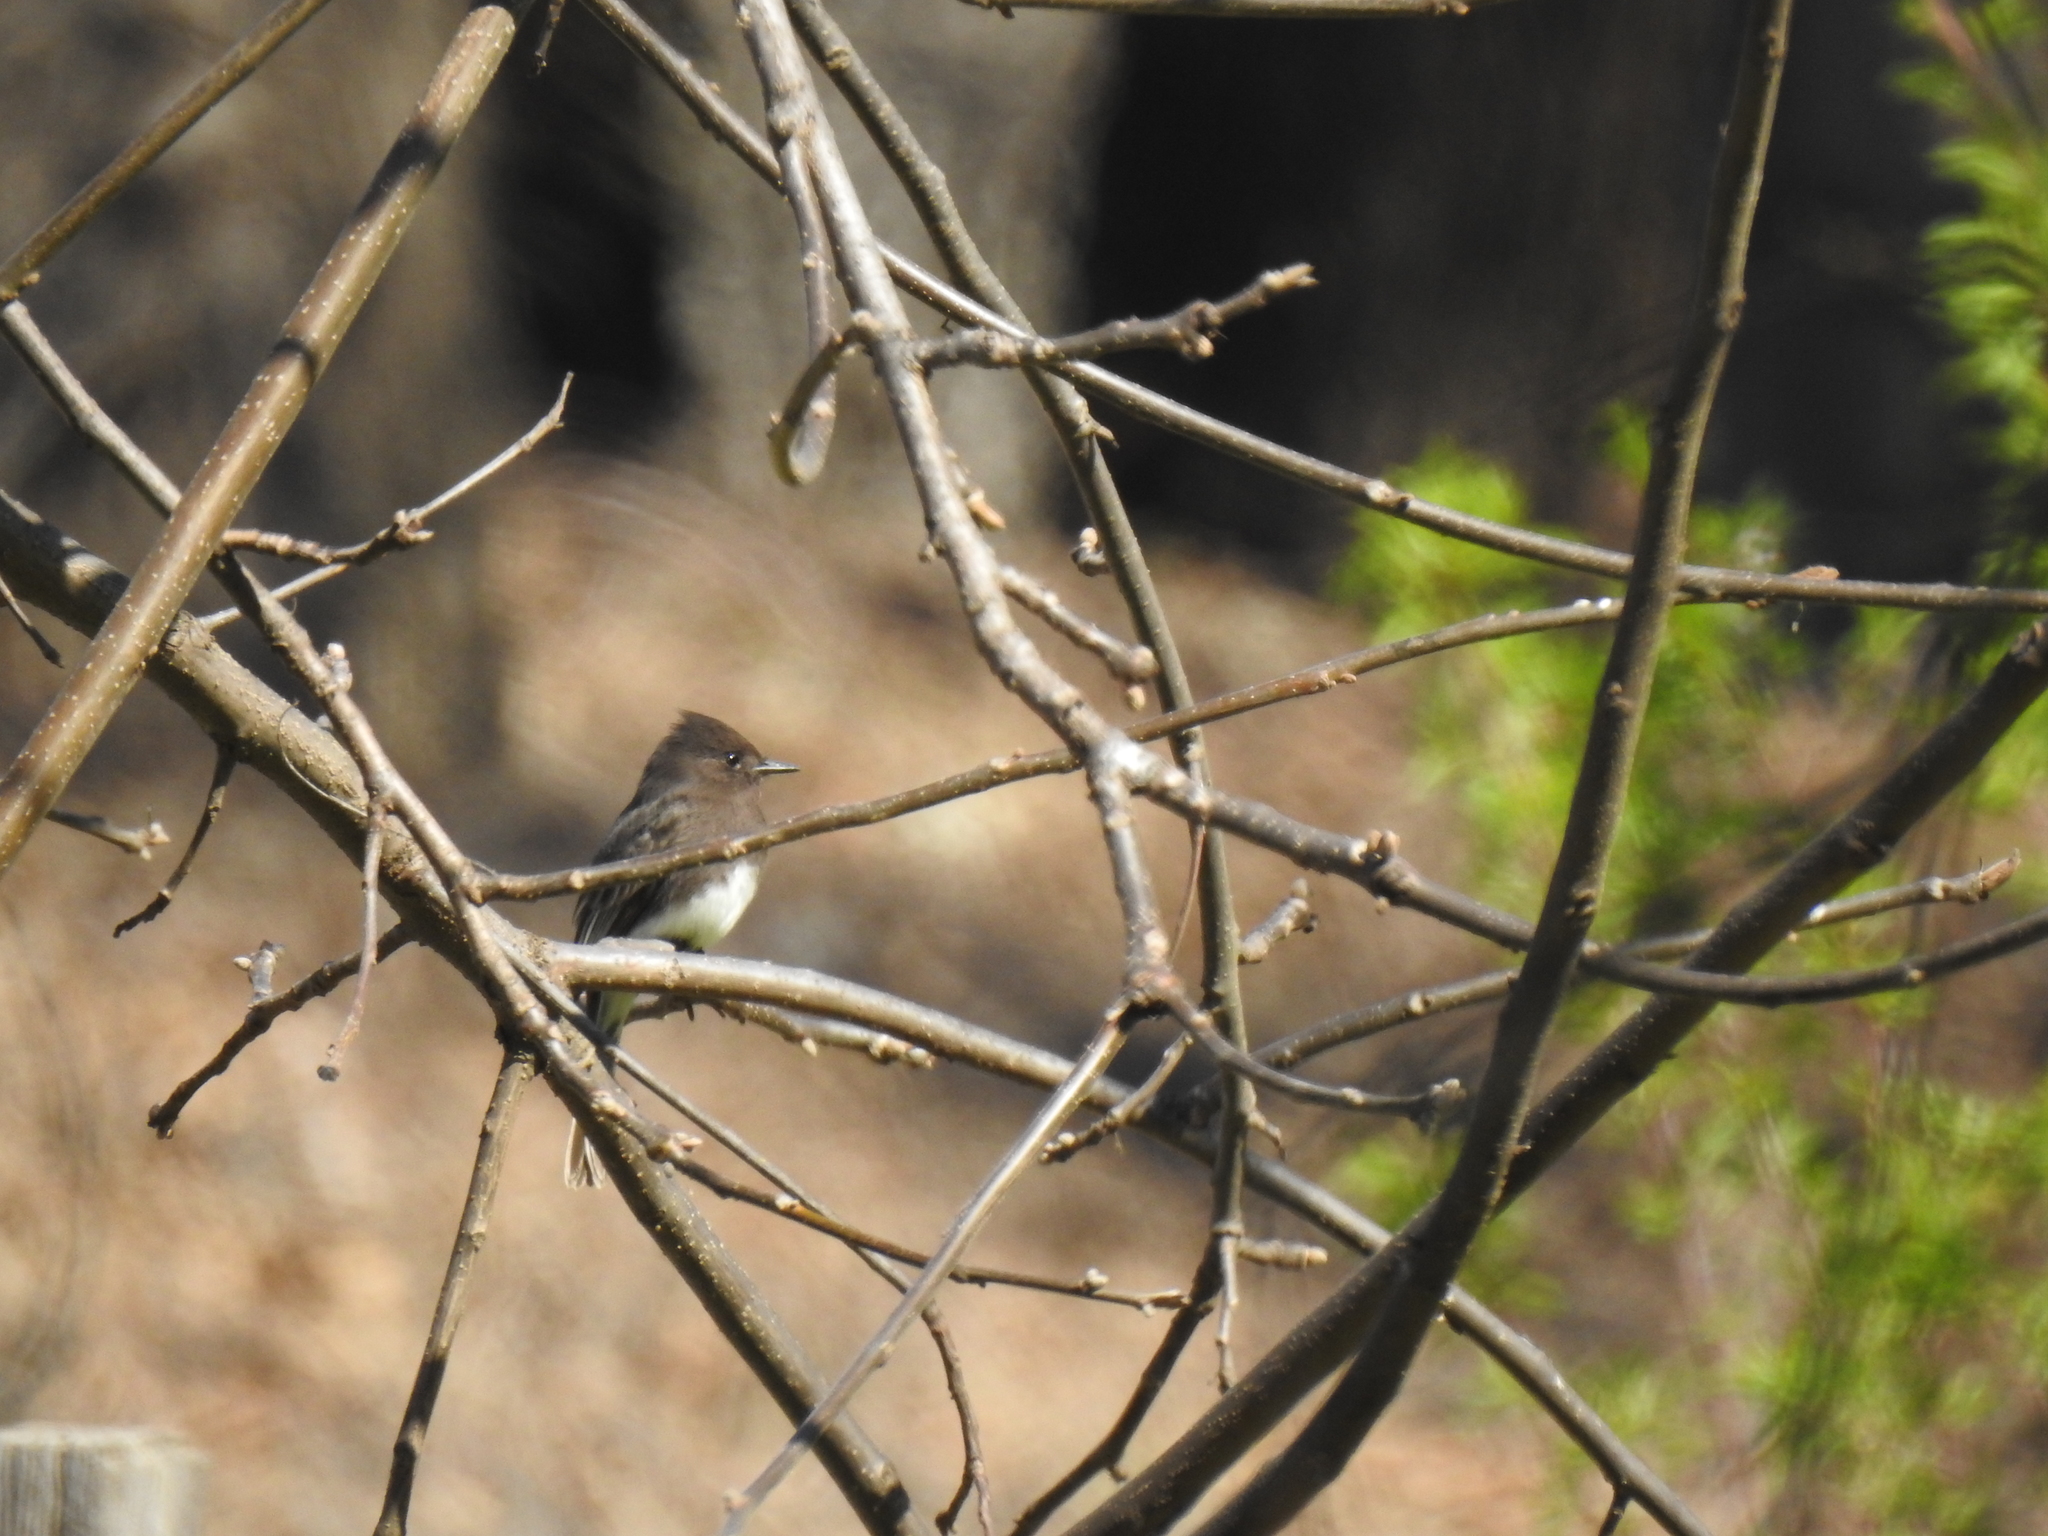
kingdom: Animalia
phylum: Chordata
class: Aves
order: Passeriformes
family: Tyrannidae
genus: Sayornis
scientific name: Sayornis nigricans
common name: Black phoebe
